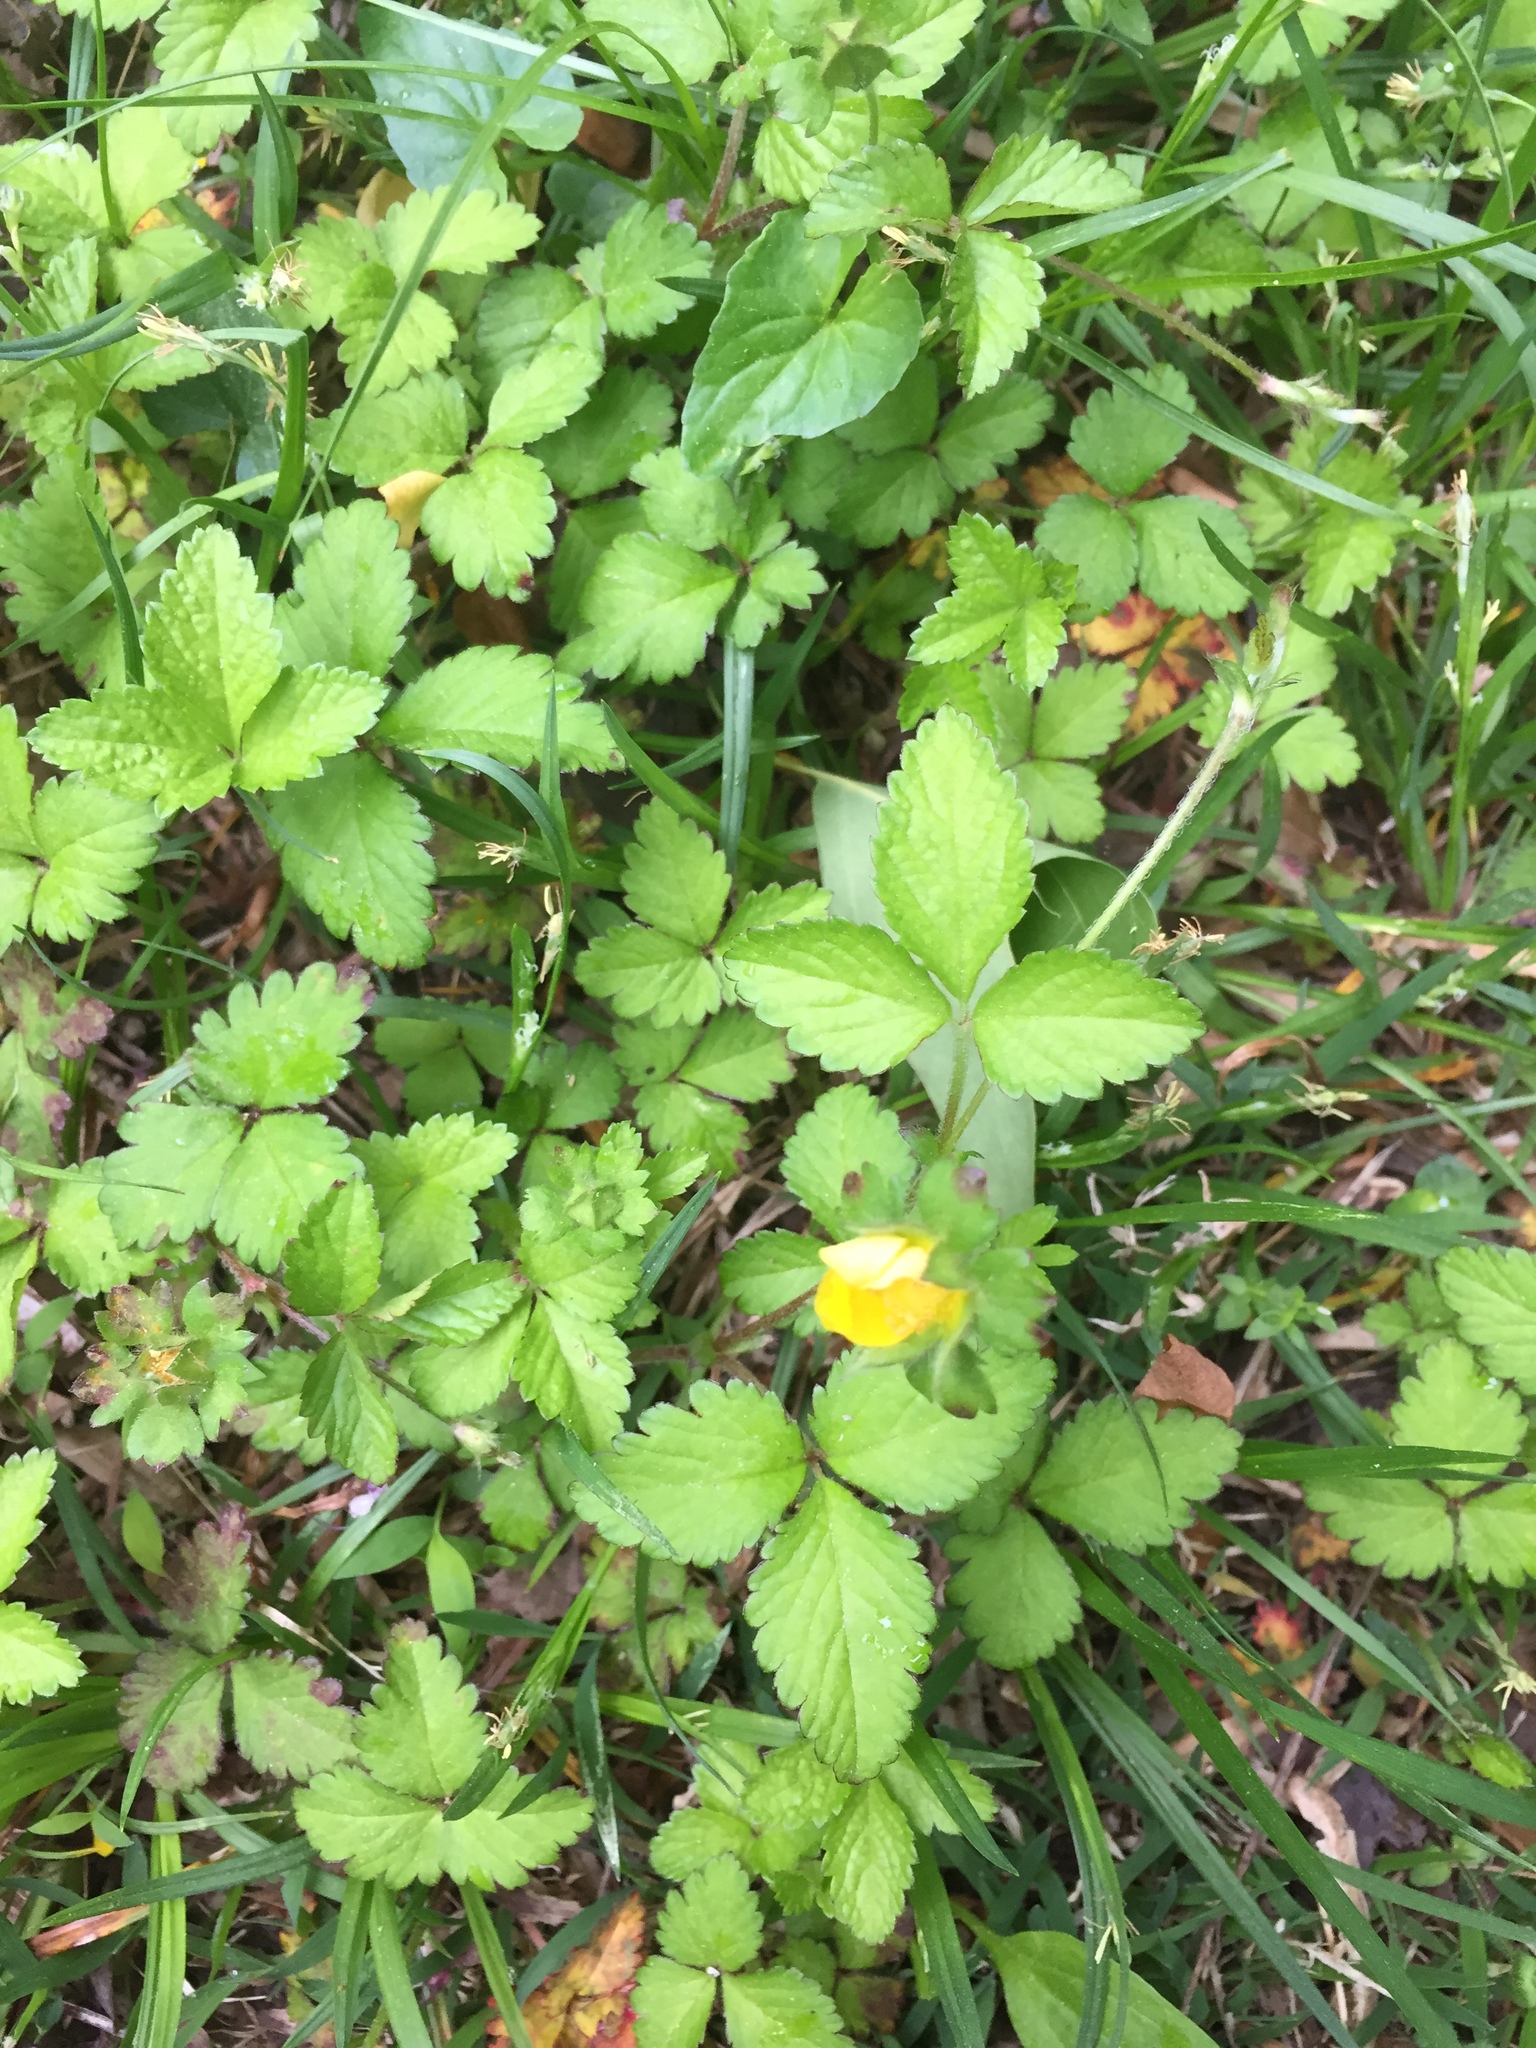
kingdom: Plantae
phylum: Tracheophyta
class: Magnoliopsida
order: Rosales
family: Rosaceae
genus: Potentilla
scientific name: Potentilla indica
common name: Yellow-flowered strawberry
